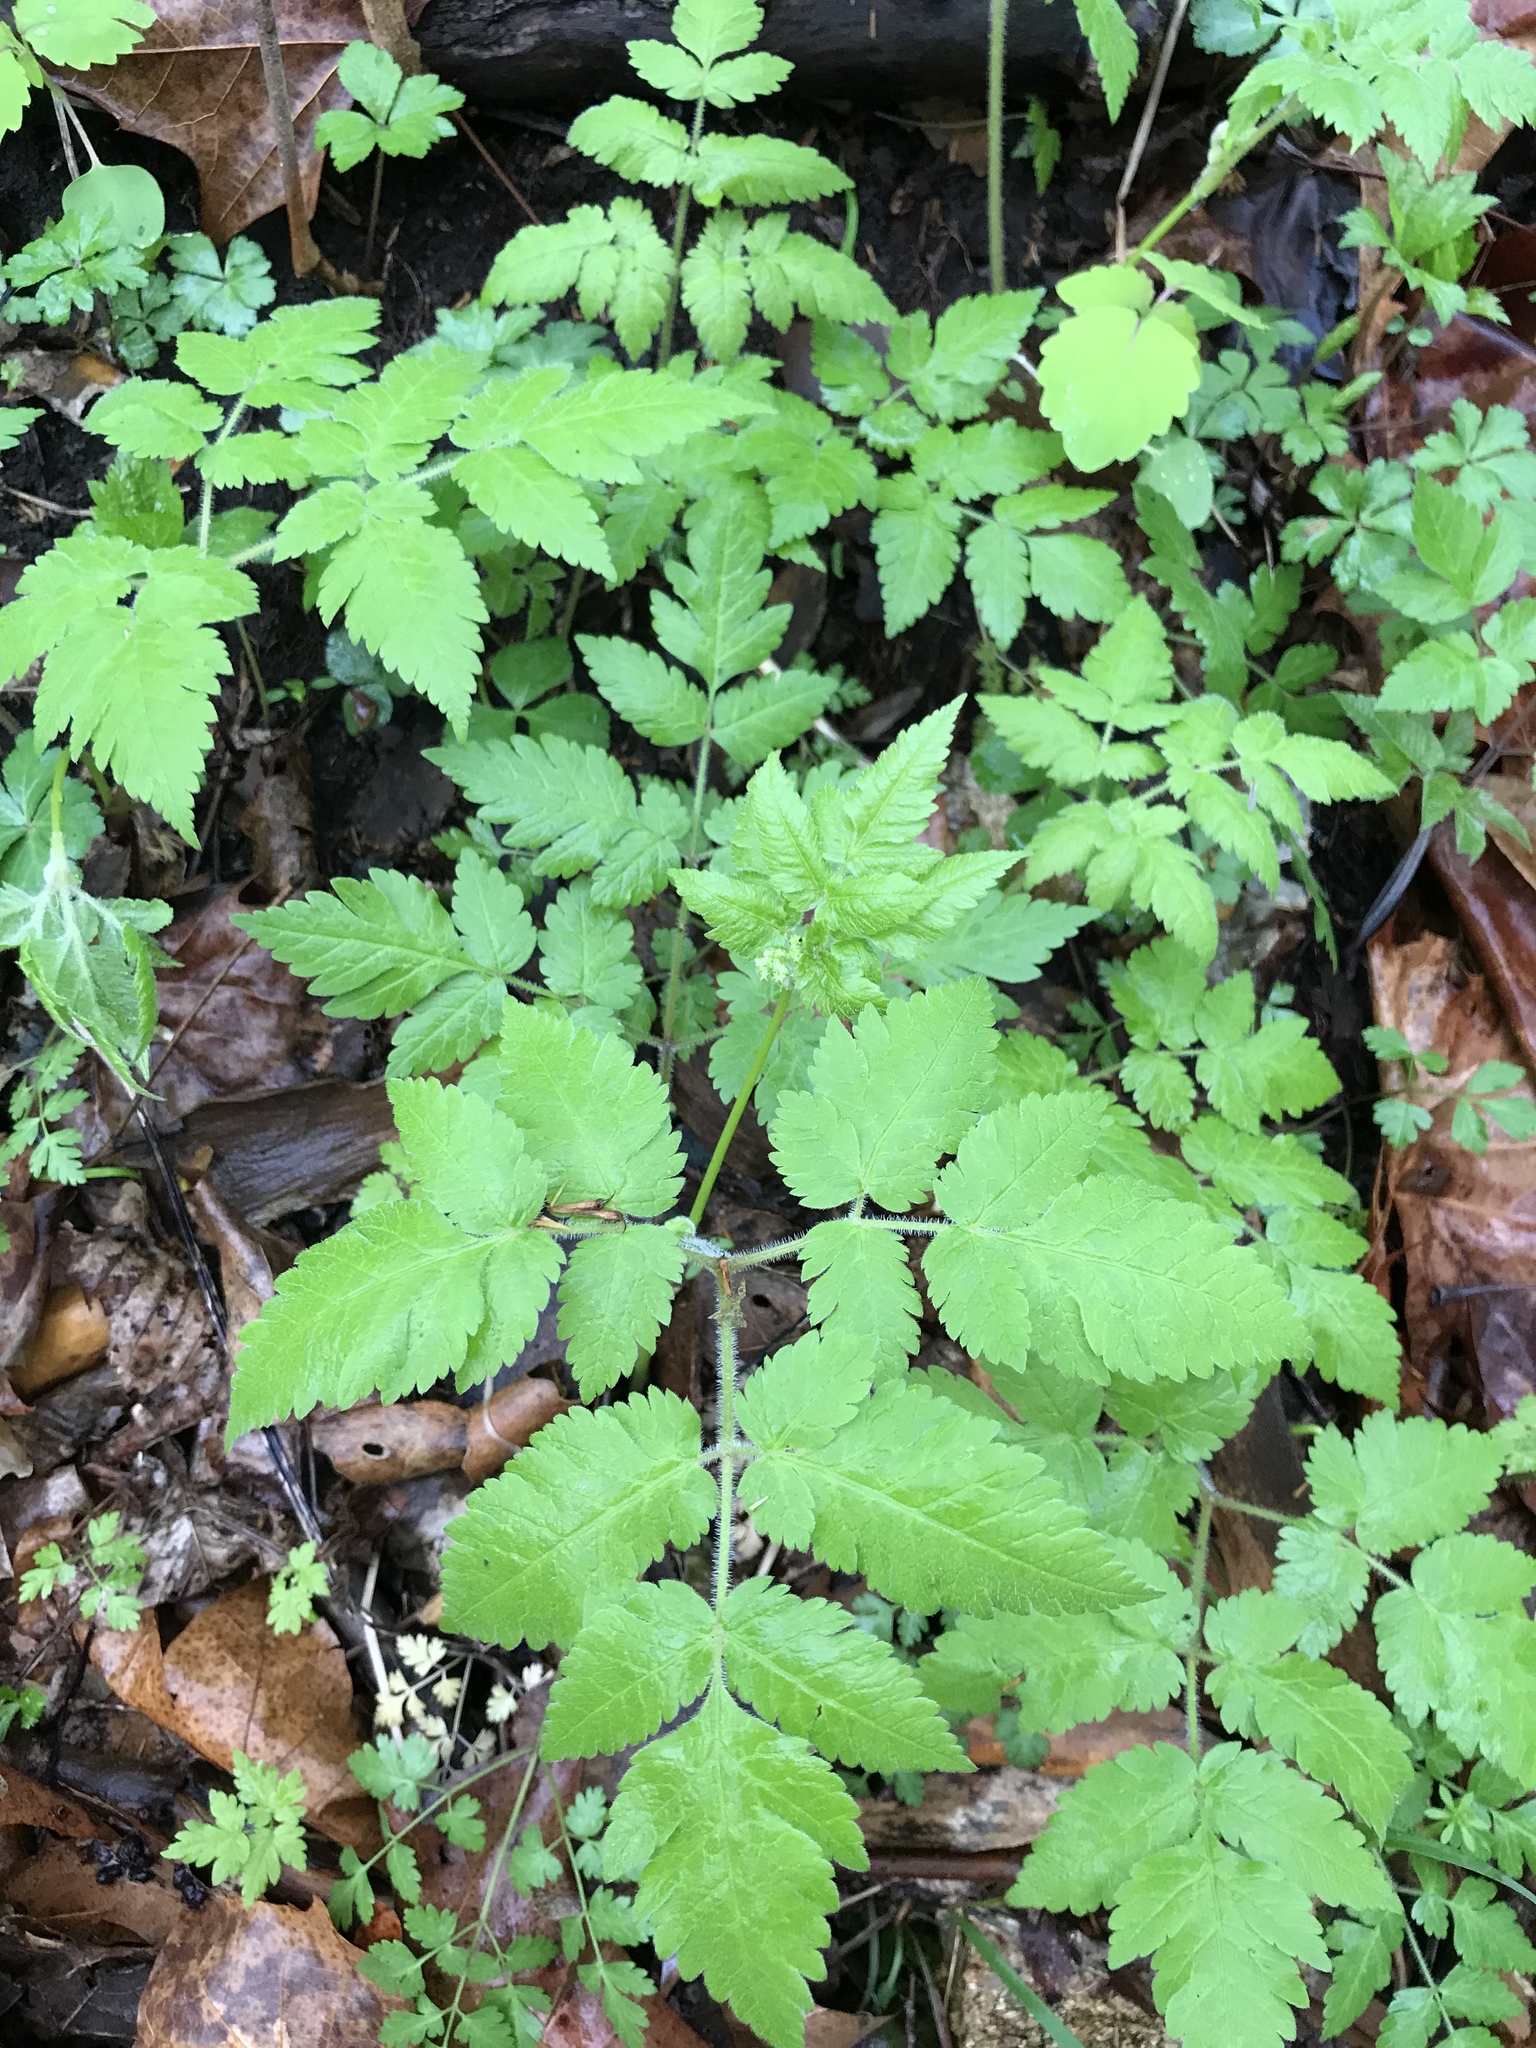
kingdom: Plantae
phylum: Tracheophyta
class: Magnoliopsida
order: Apiales
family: Apiaceae
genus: Osmorhiza
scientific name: Osmorhiza longistylis
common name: Smooth sweet cicely
